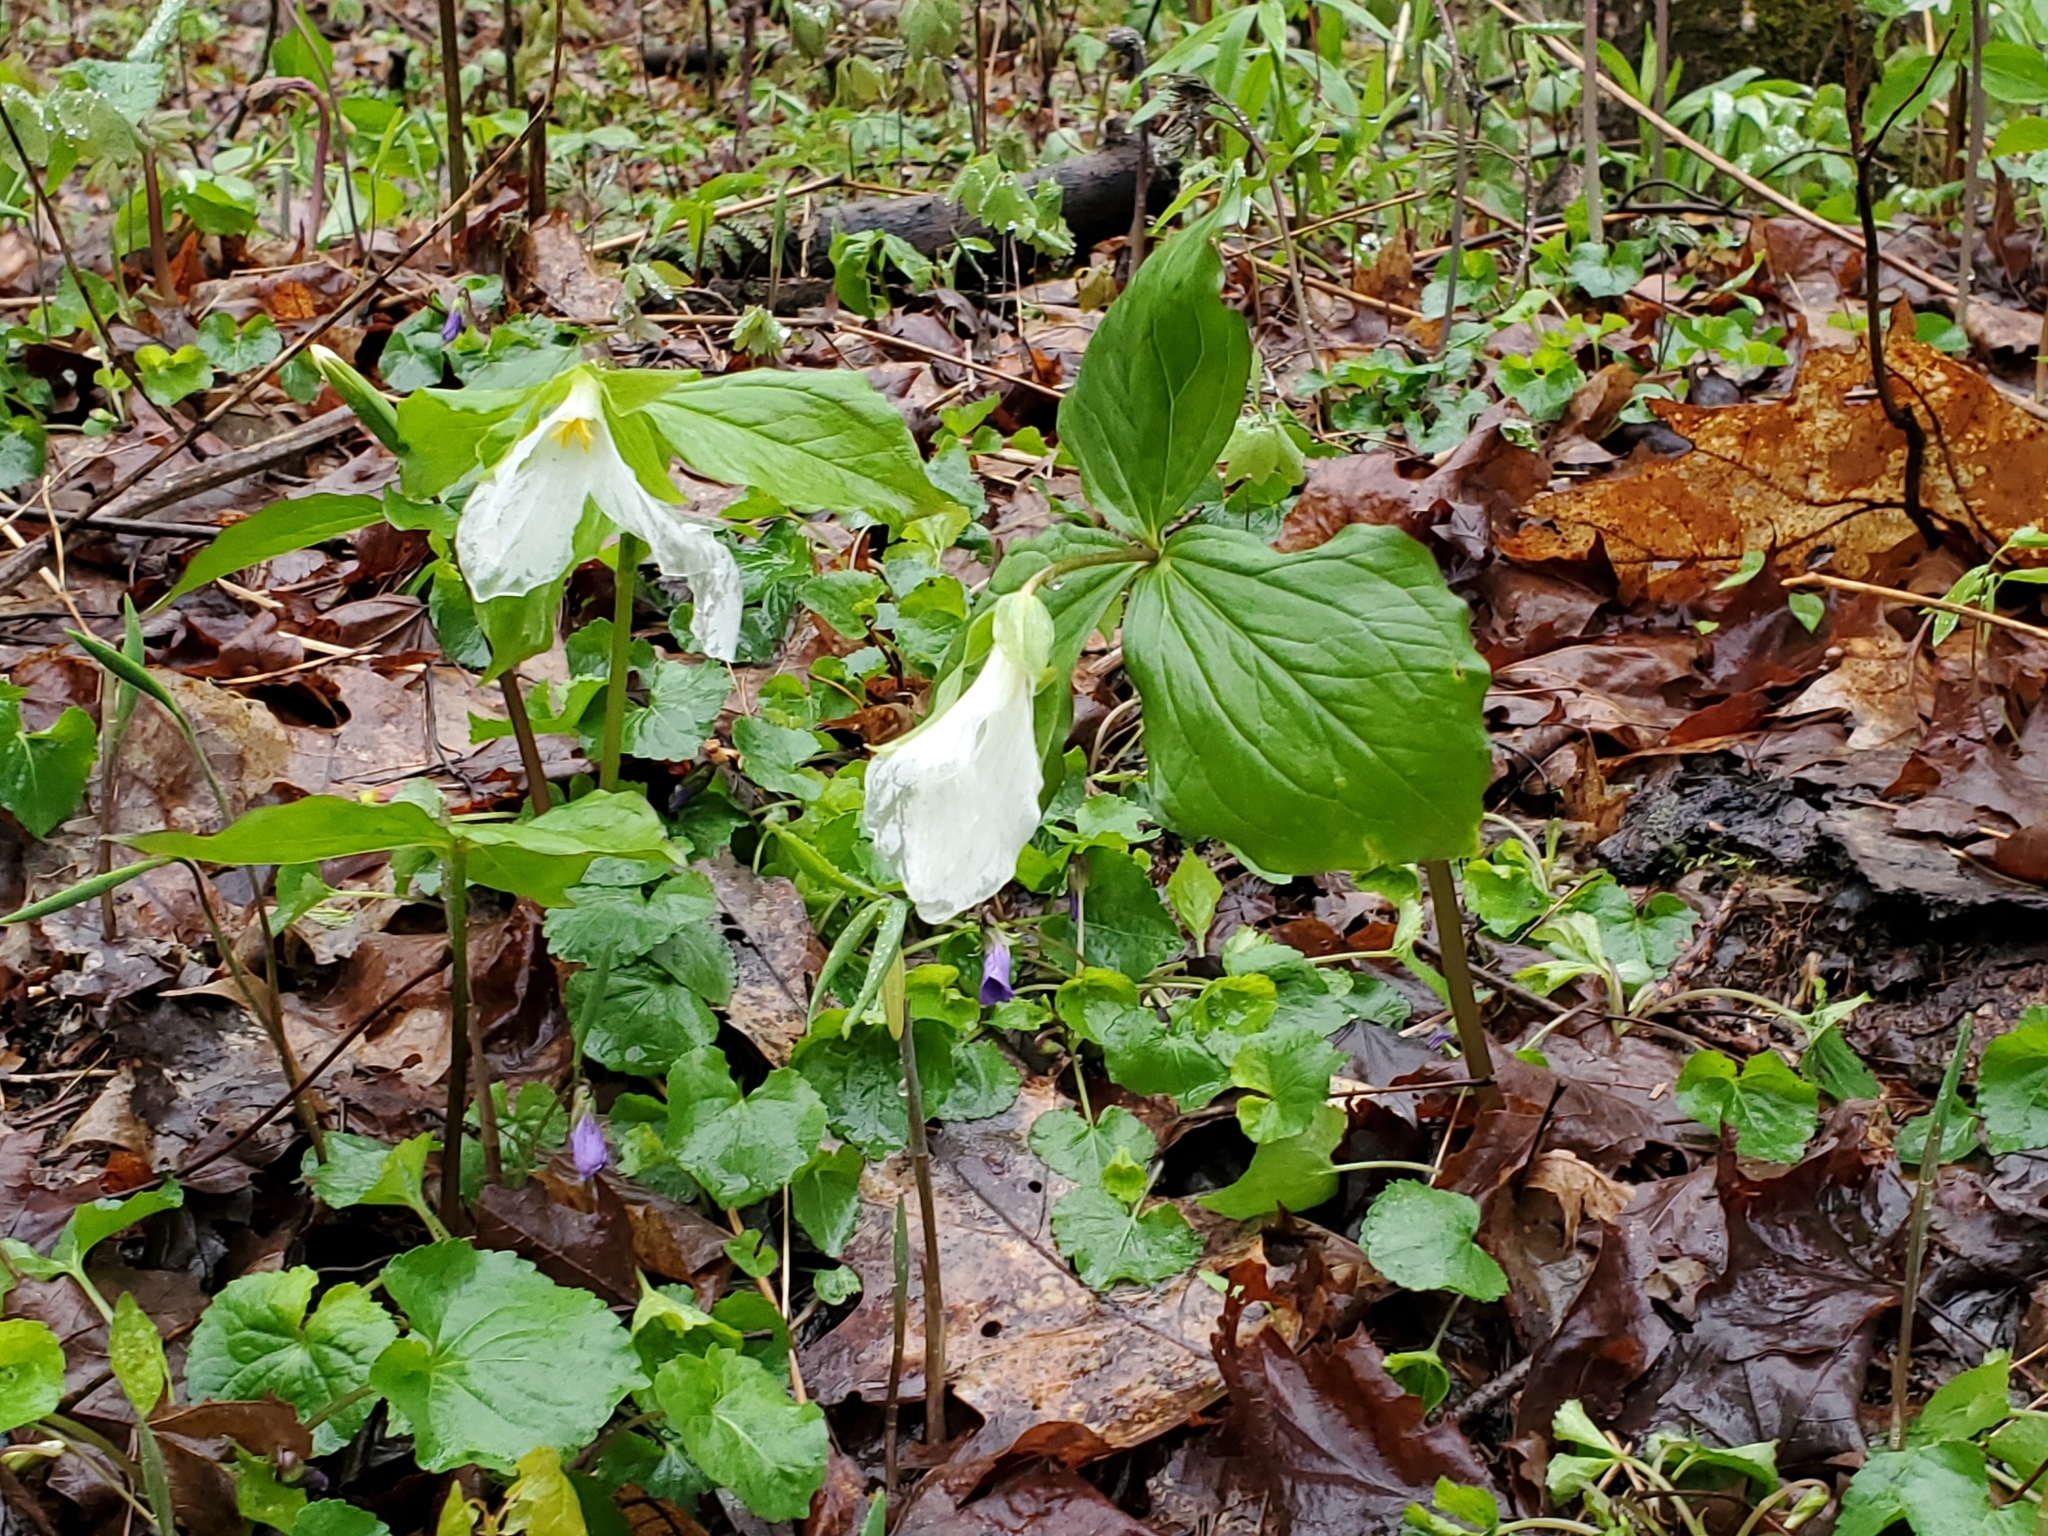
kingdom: Plantae
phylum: Tracheophyta
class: Liliopsida
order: Liliales
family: Melanthiaceae
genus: Trillium
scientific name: Trillium grandiflorum
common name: Great white trillium
